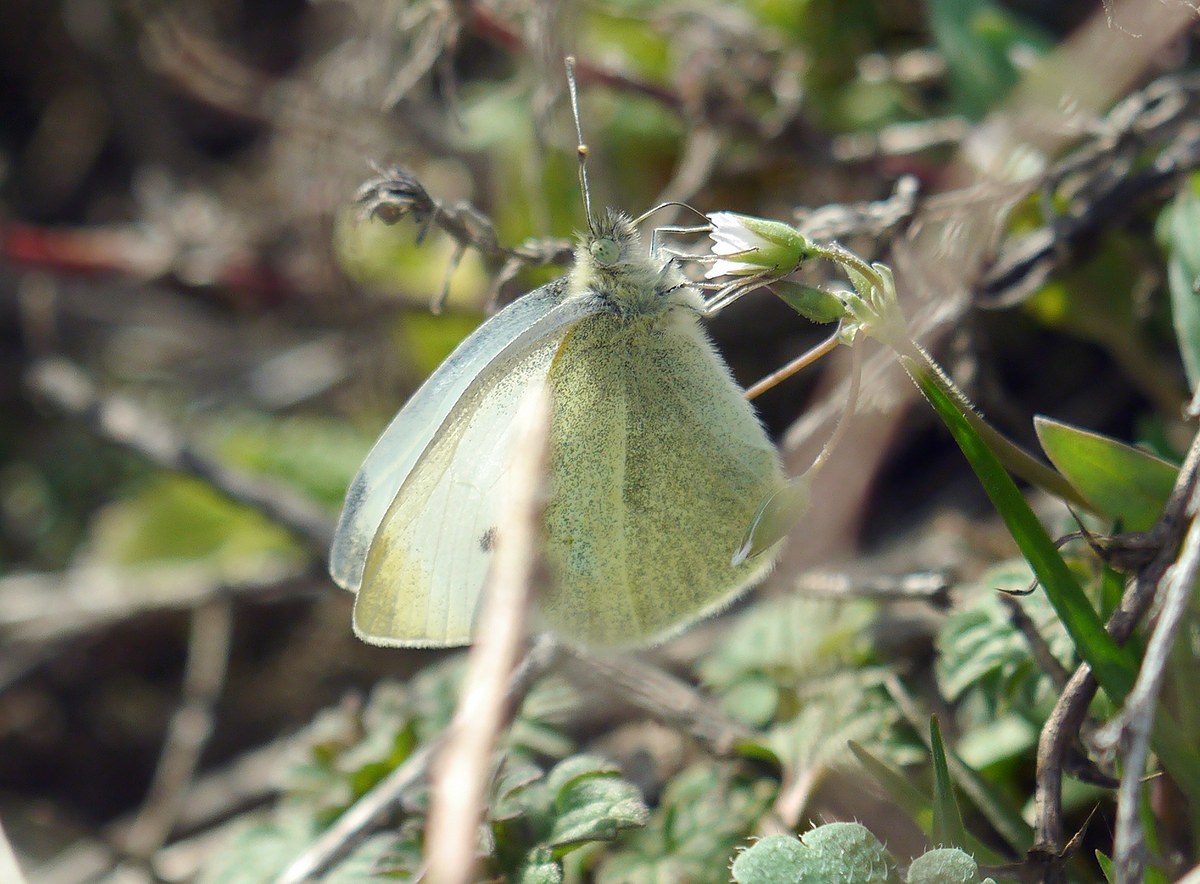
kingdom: Animalia
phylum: Arthropoda
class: Insecta
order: Lepidoptera
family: Pieridae
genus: Pieris
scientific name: Pieris rapae
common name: Small white
